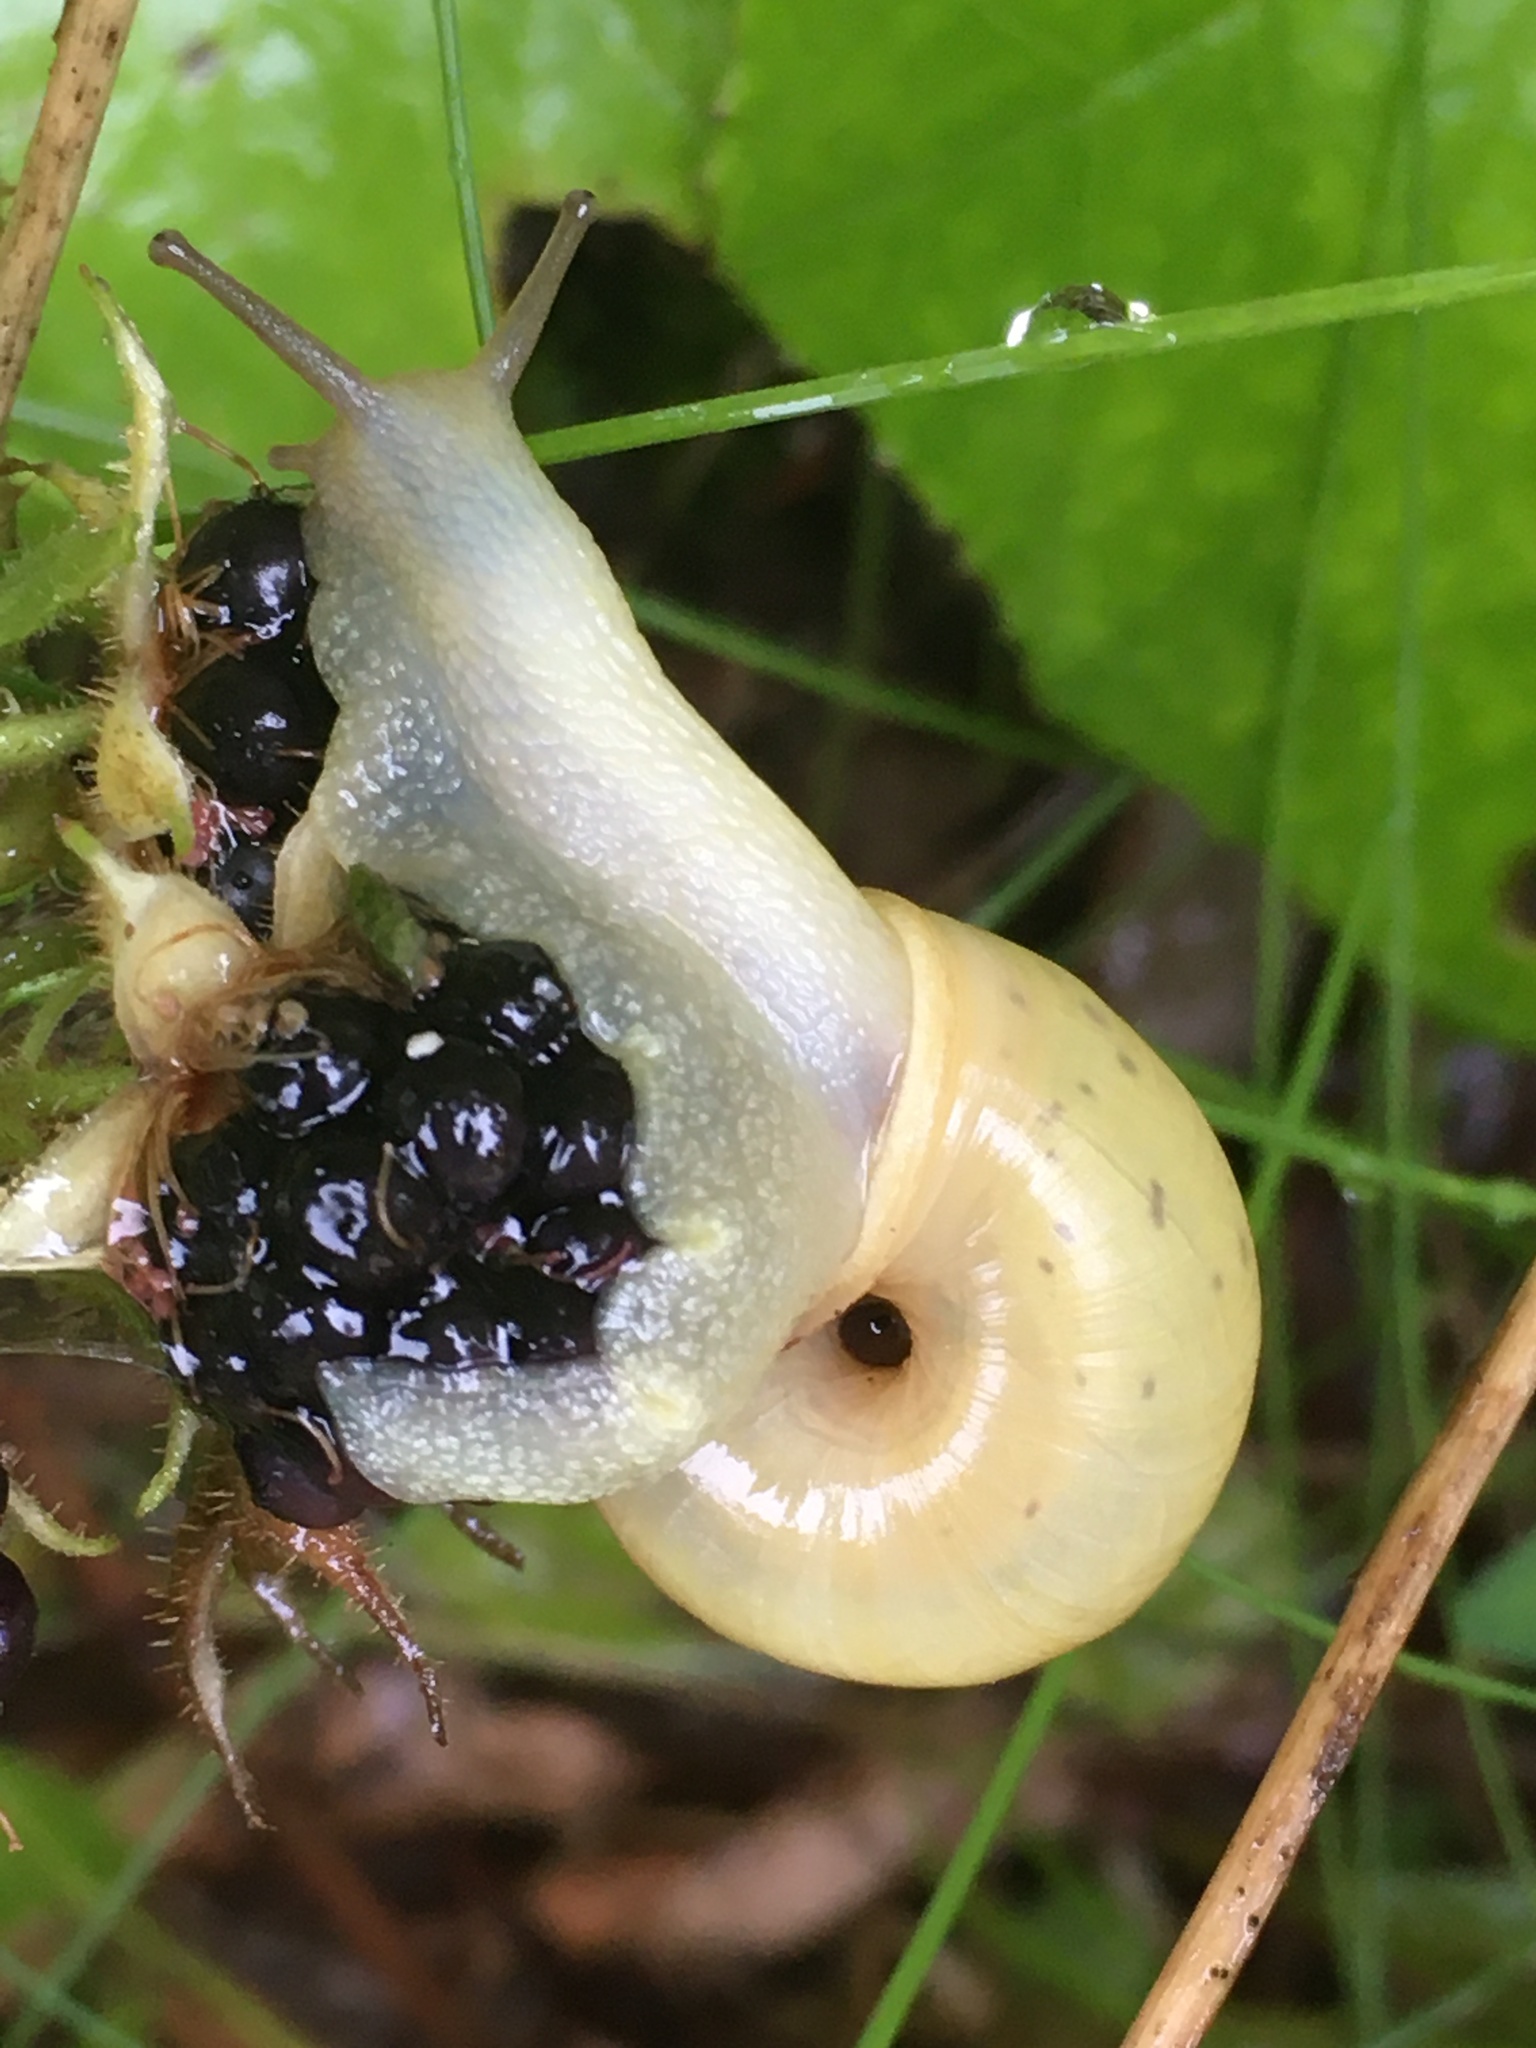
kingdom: Animalia
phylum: Mollusca
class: Gastropoda
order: Stylommatophora
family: Camaenidae
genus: Fruticicola
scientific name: Fruticicola fruticum
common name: Bush snail
